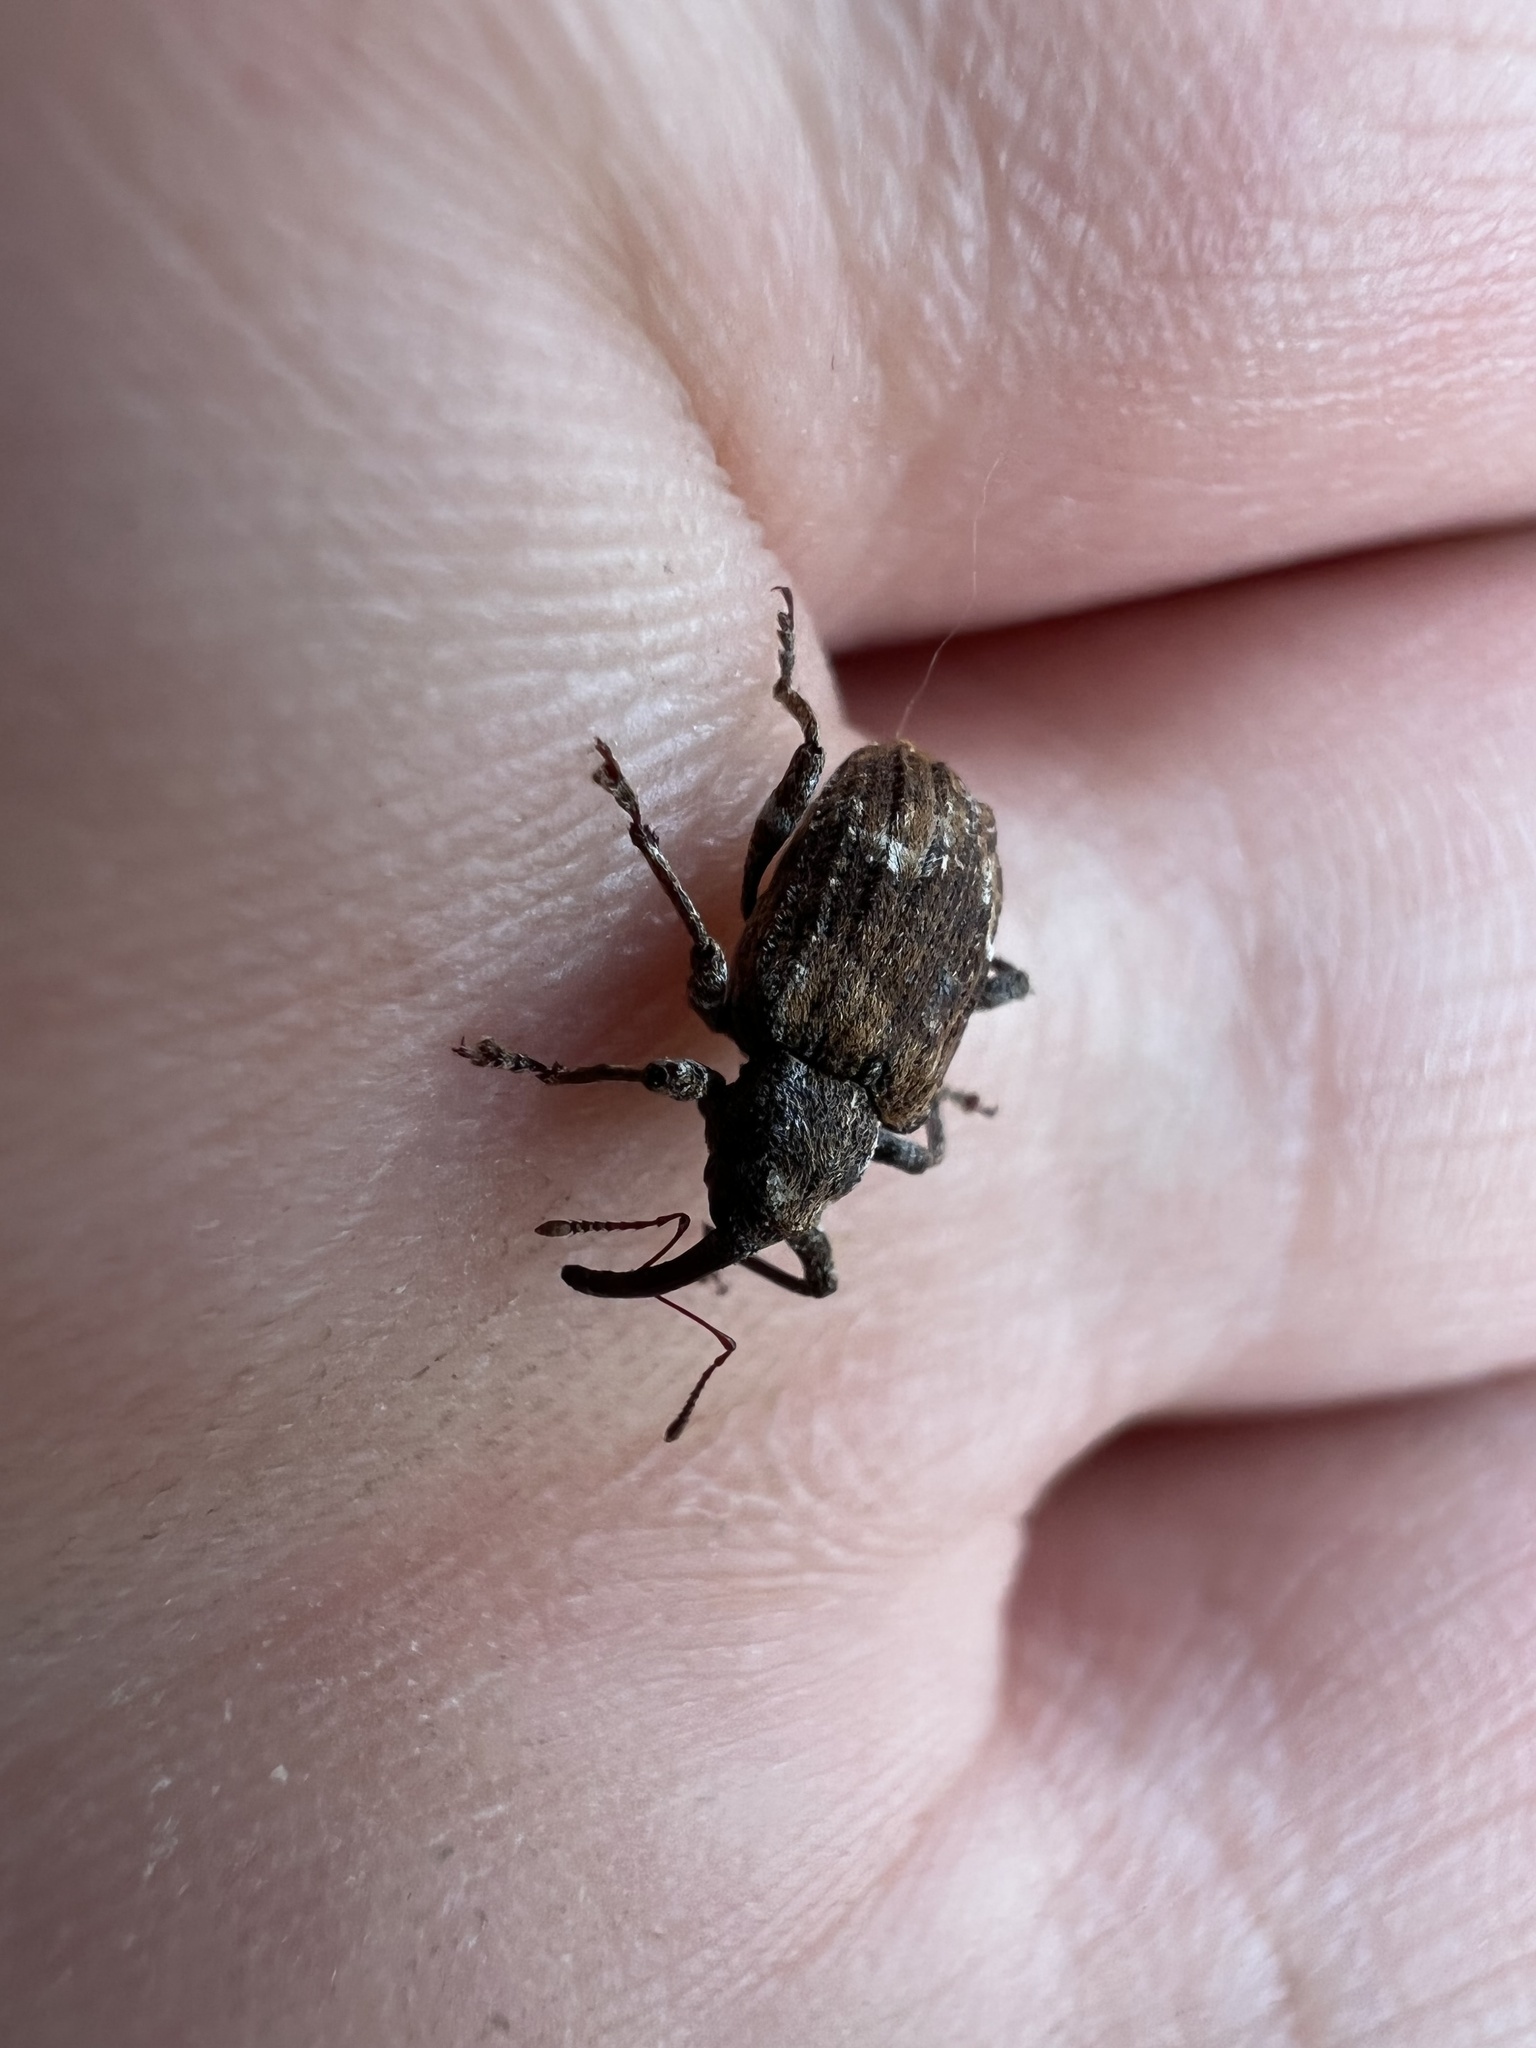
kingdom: Animalia
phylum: Arthropoda
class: Insecta
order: Coleoptera
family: Curculionidae
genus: Conotrachelus
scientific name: Conotrachelus neomexicanus
